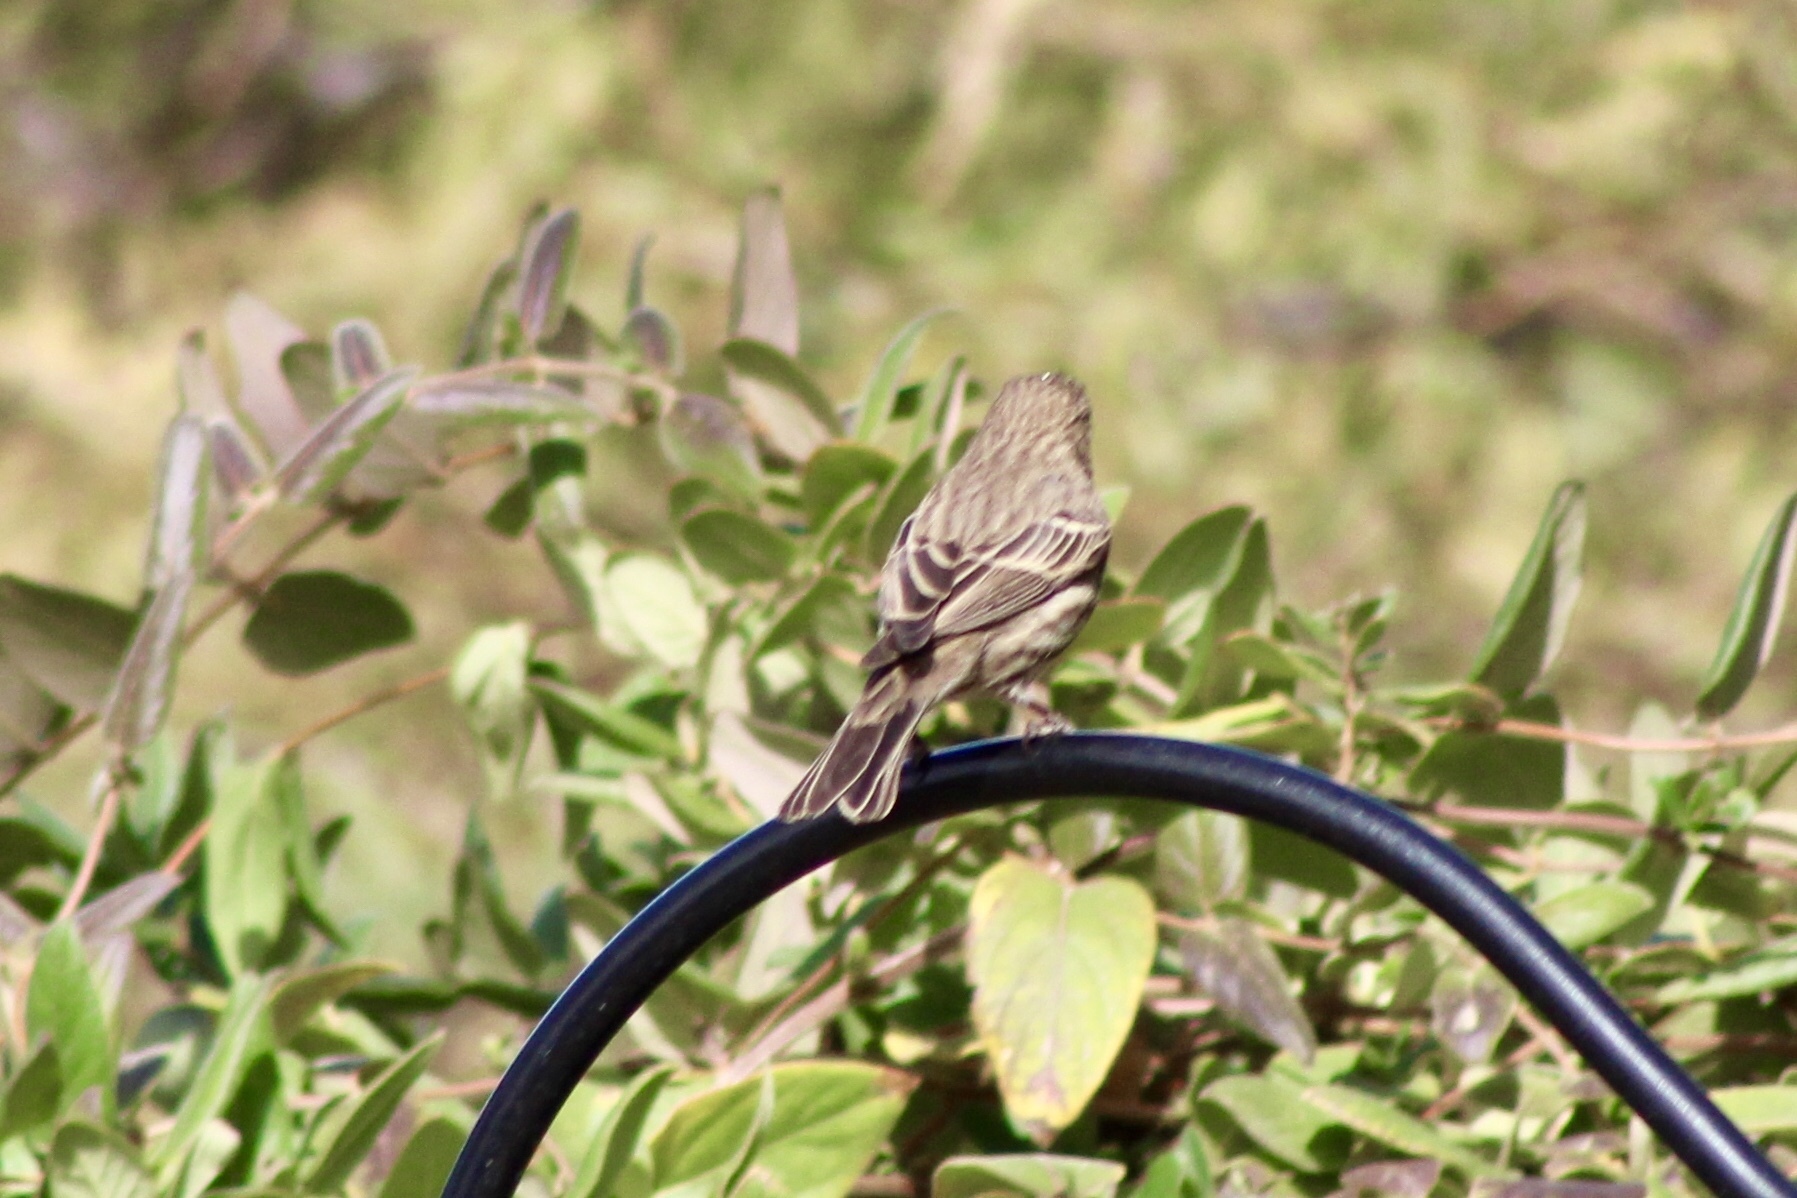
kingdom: Animalia
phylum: Chordata
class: Aves
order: Passeriformes
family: Fringillidae
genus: Haemorhous
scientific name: Haemorhous mexicanus
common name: House finch
